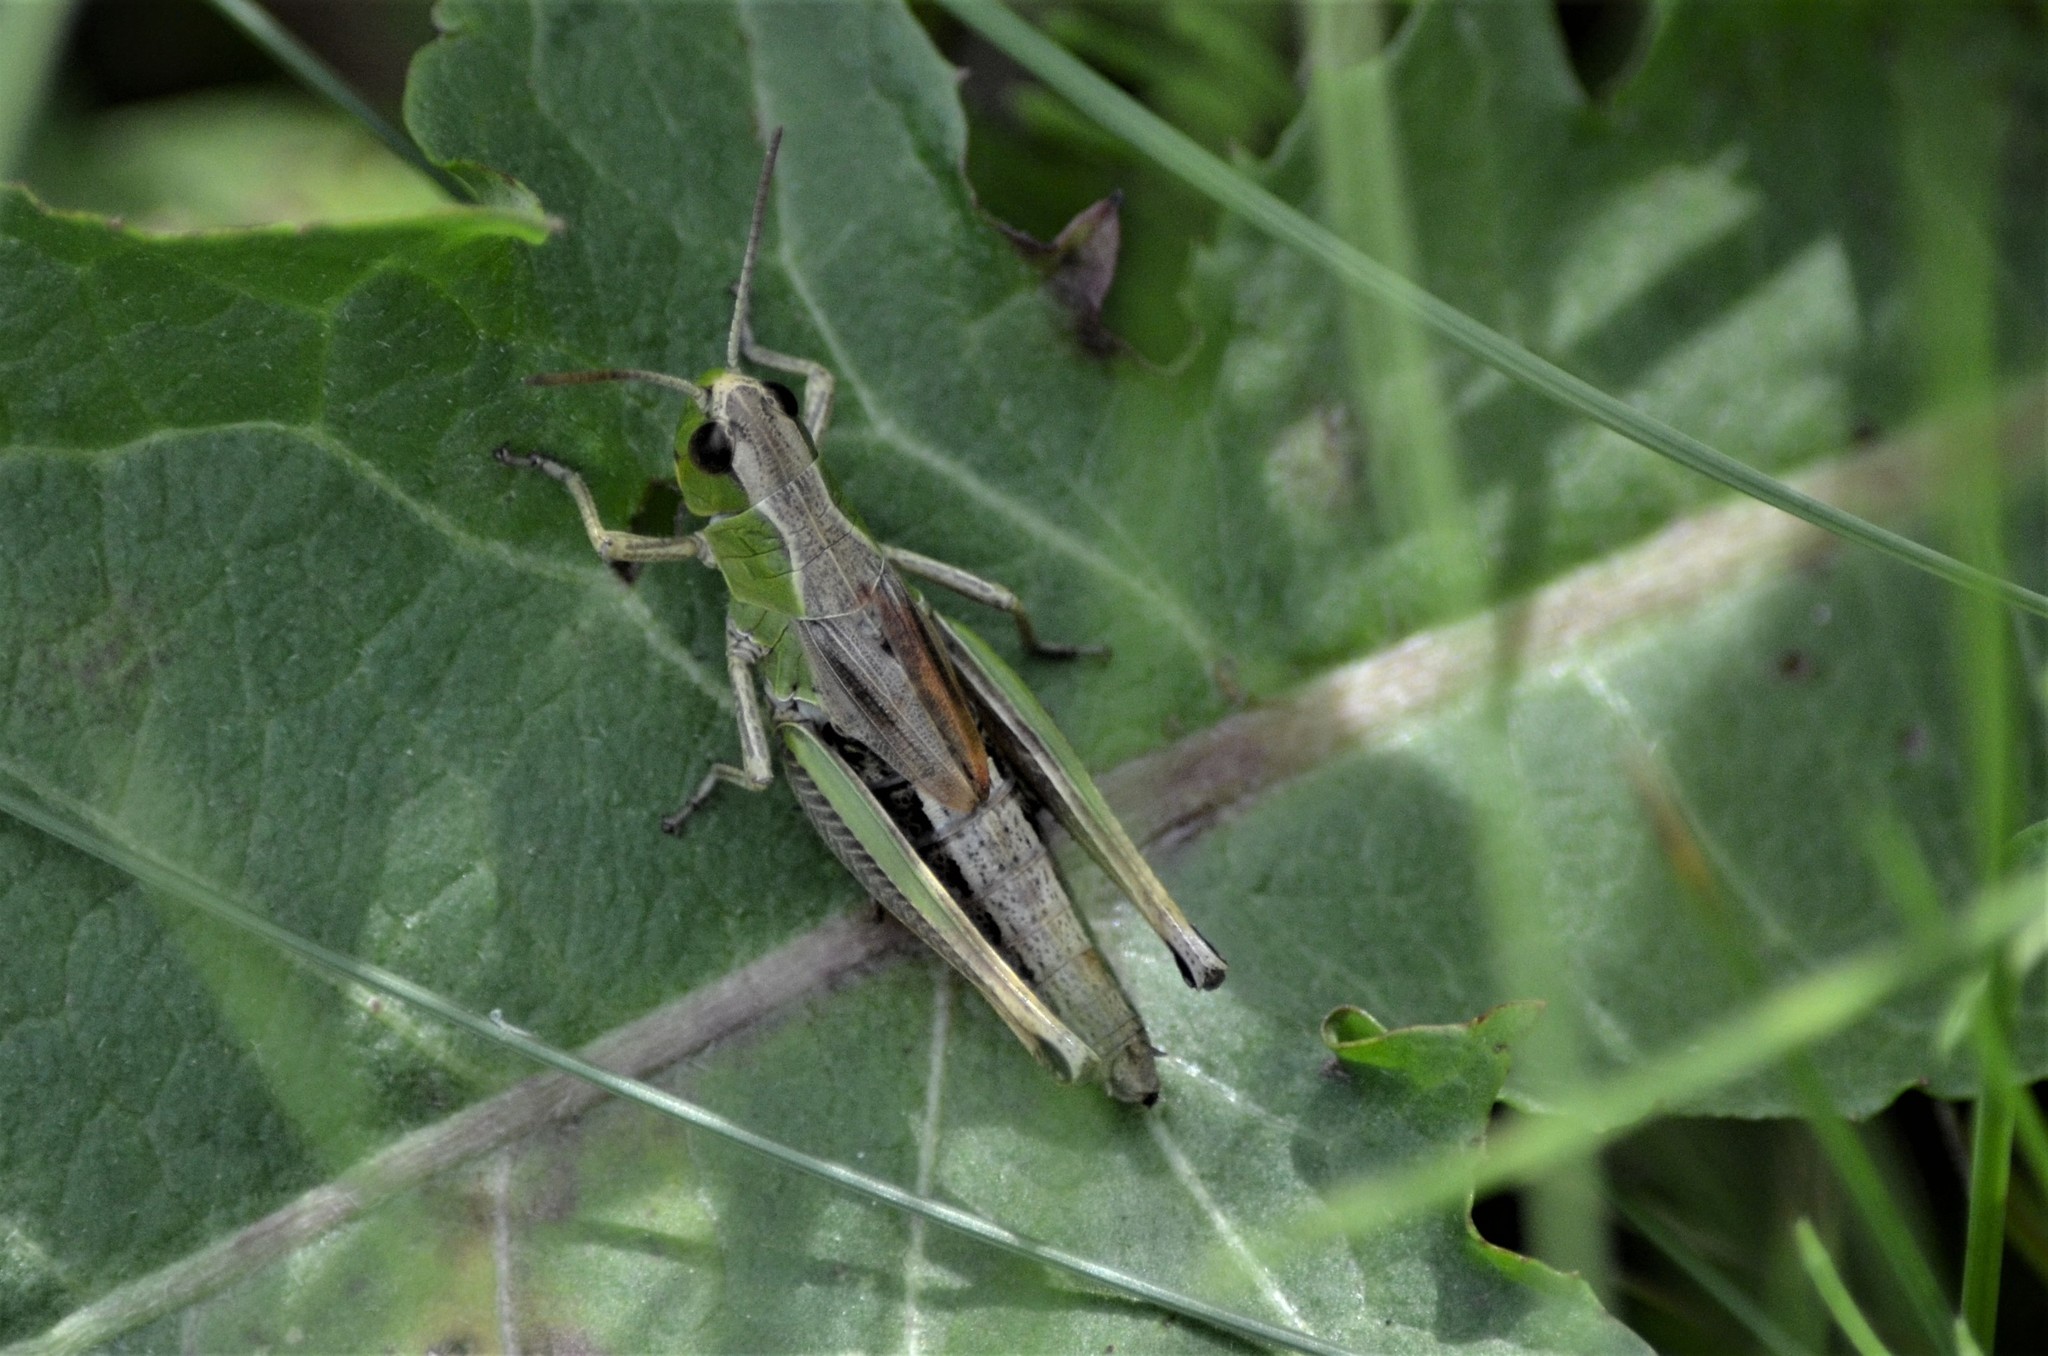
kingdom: Animalia
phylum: Arthropoda
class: Insecta
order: Orthoptera
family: Acrididae
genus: Pseudochorthippus
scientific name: Pseudochorthippus parallelus
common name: Meadow grasshopper
